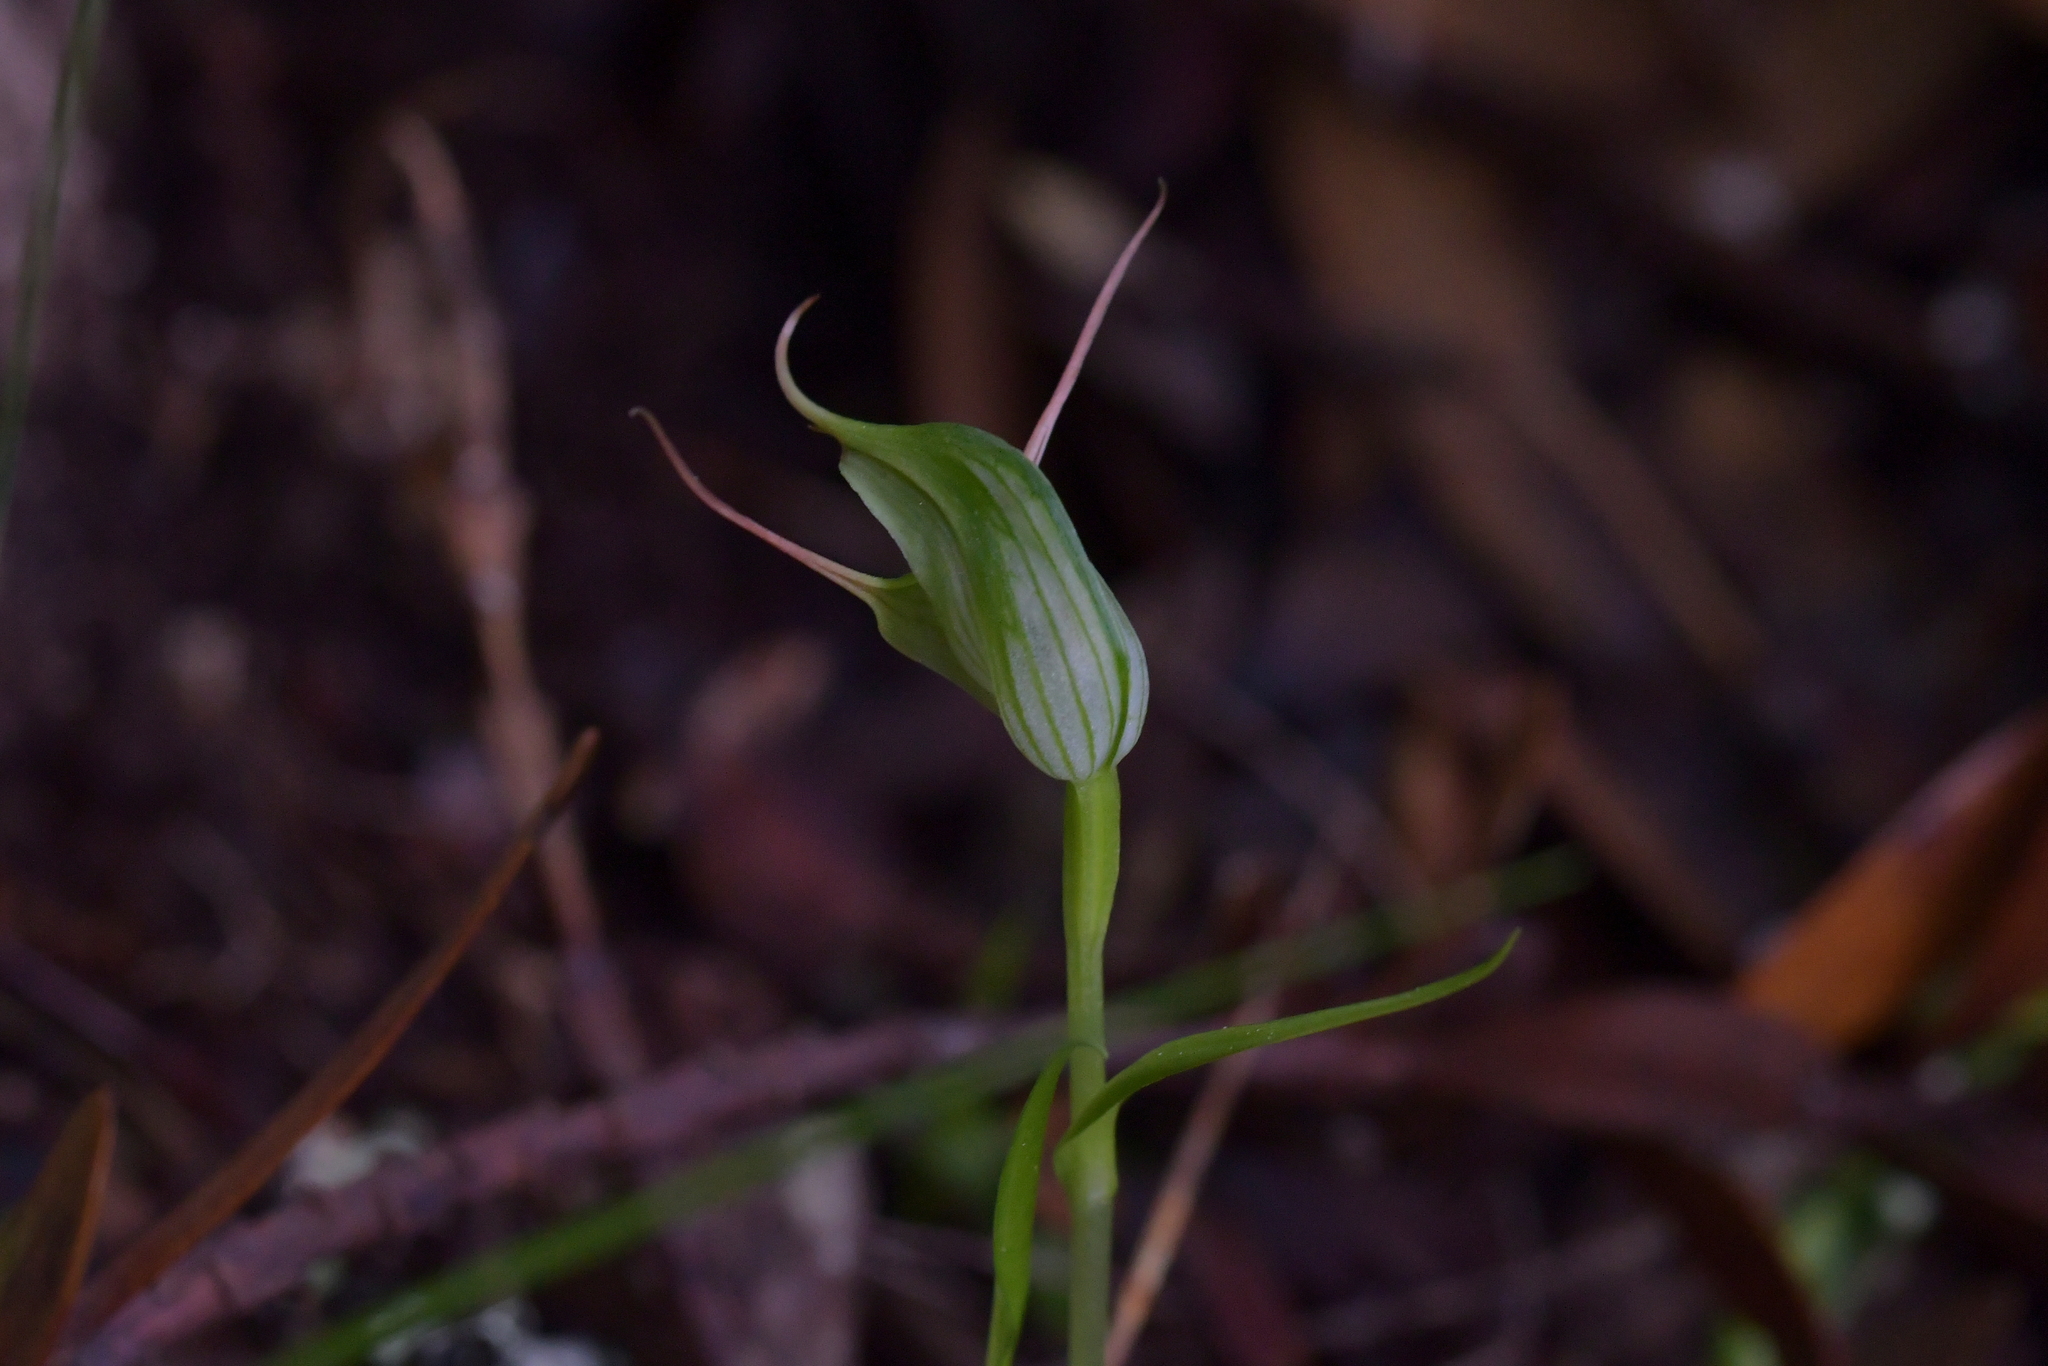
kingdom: Plantae
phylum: Tracheophyta
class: Liliopsida
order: Asparagales
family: Orchidaceae
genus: Pterostylis
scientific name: Pterostylis agathicola
